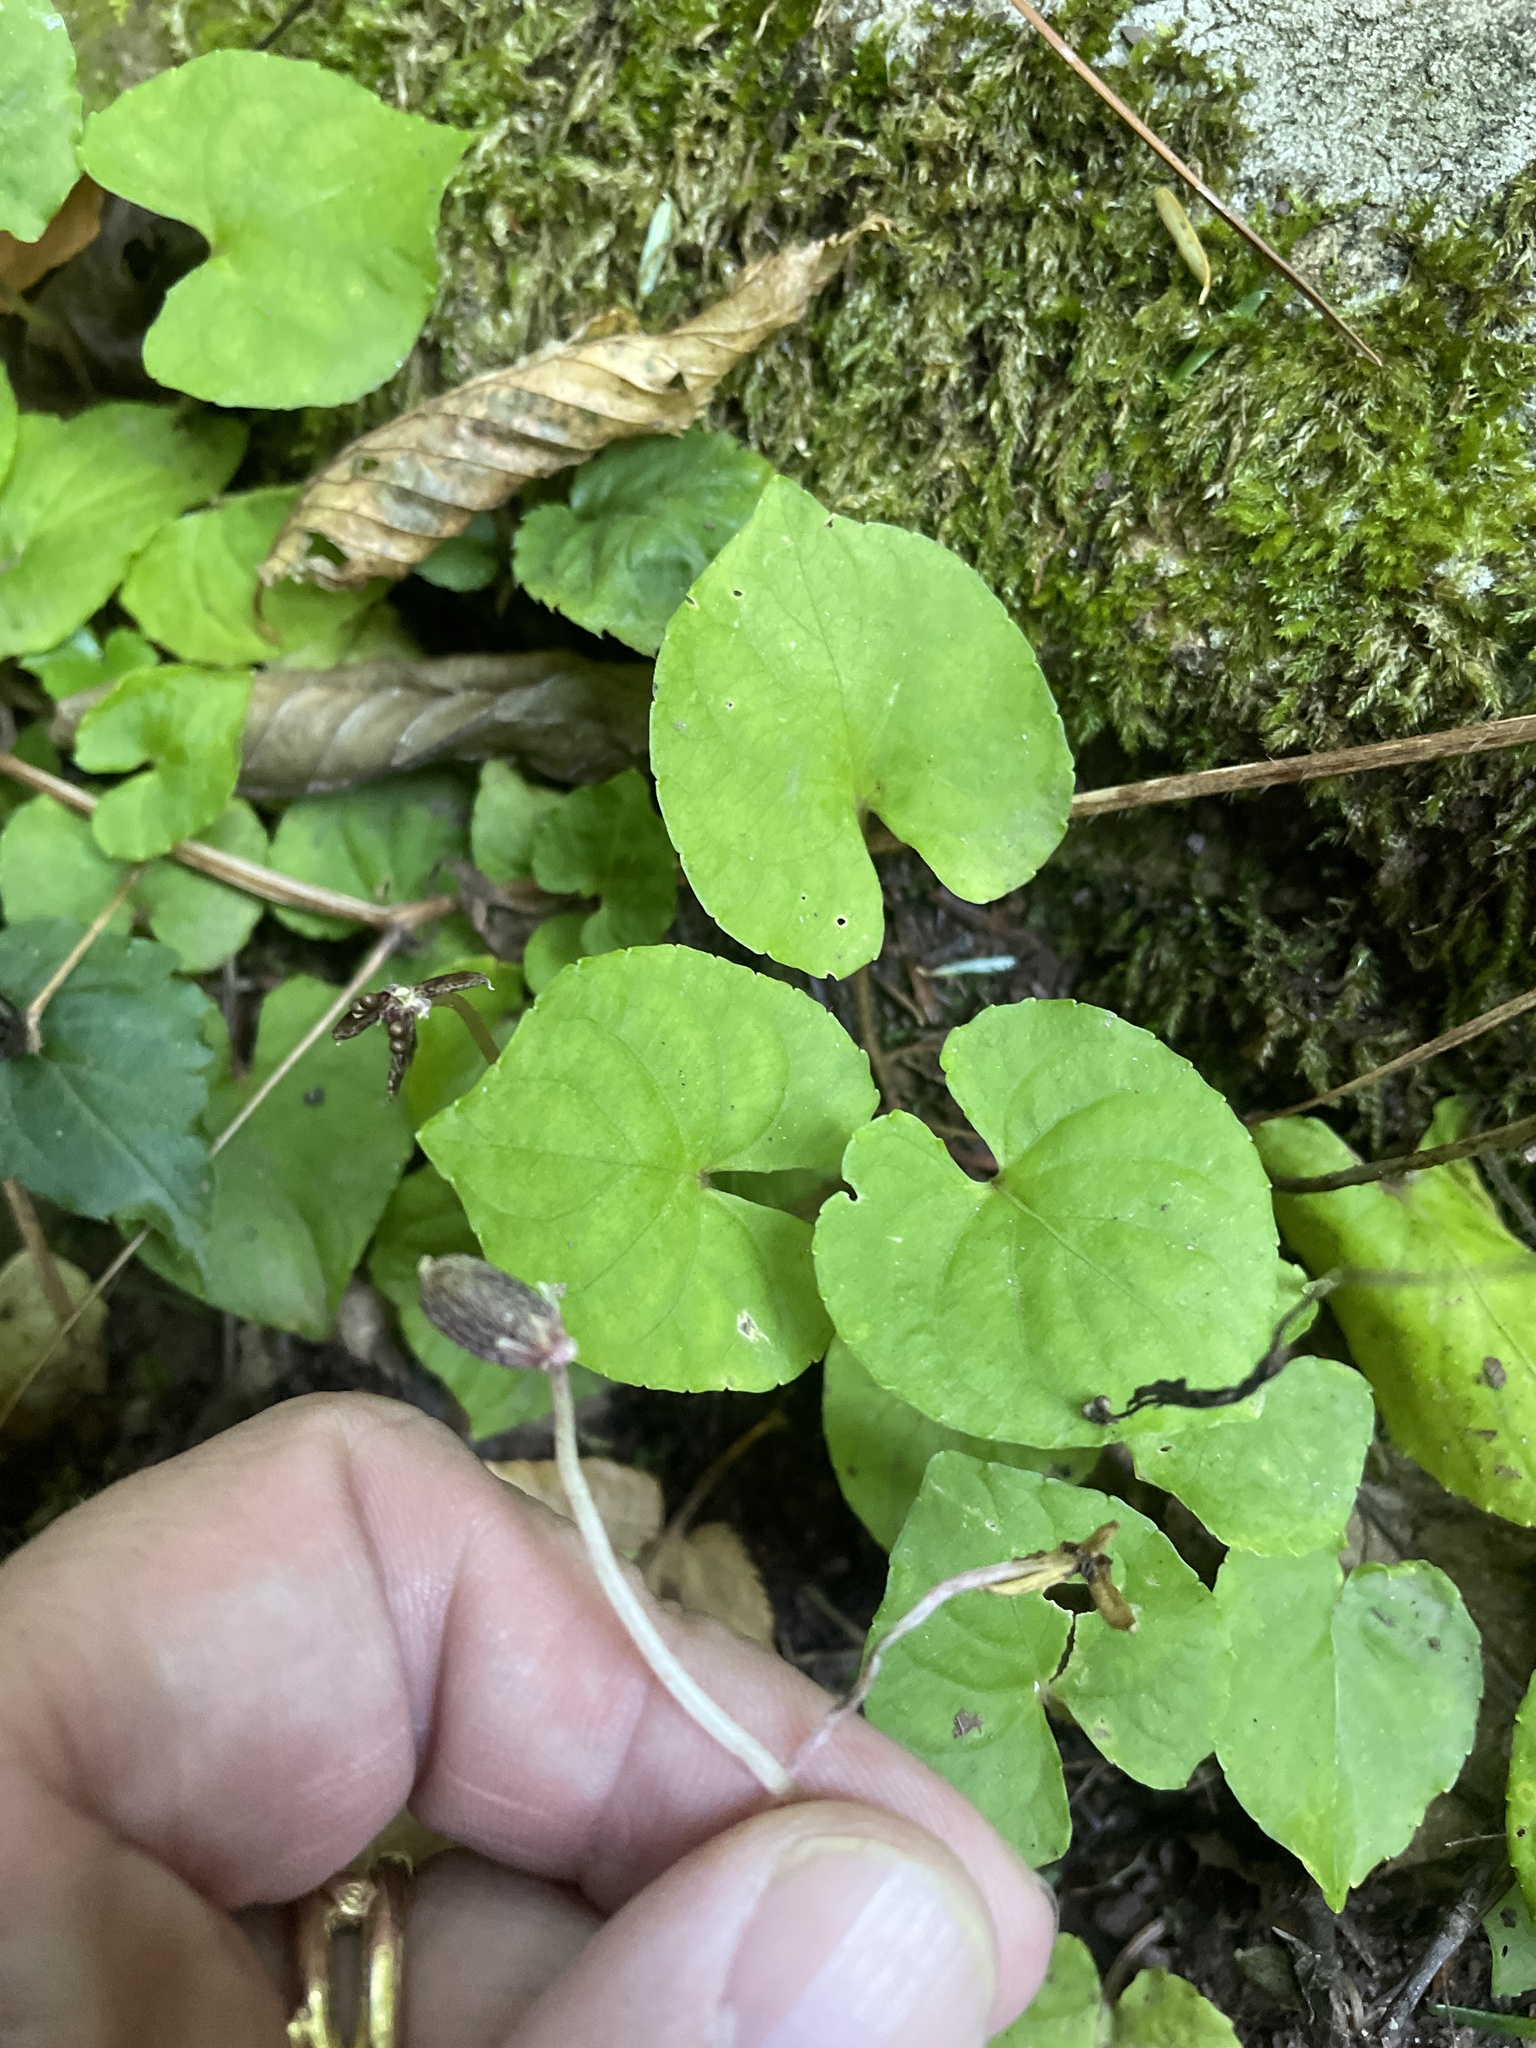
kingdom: Plantae
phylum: Tracheophyta
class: Magnoliopsida
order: Malpighiales
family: Violaceae
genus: Viola
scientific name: Viola blanda
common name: Sweet white violet
